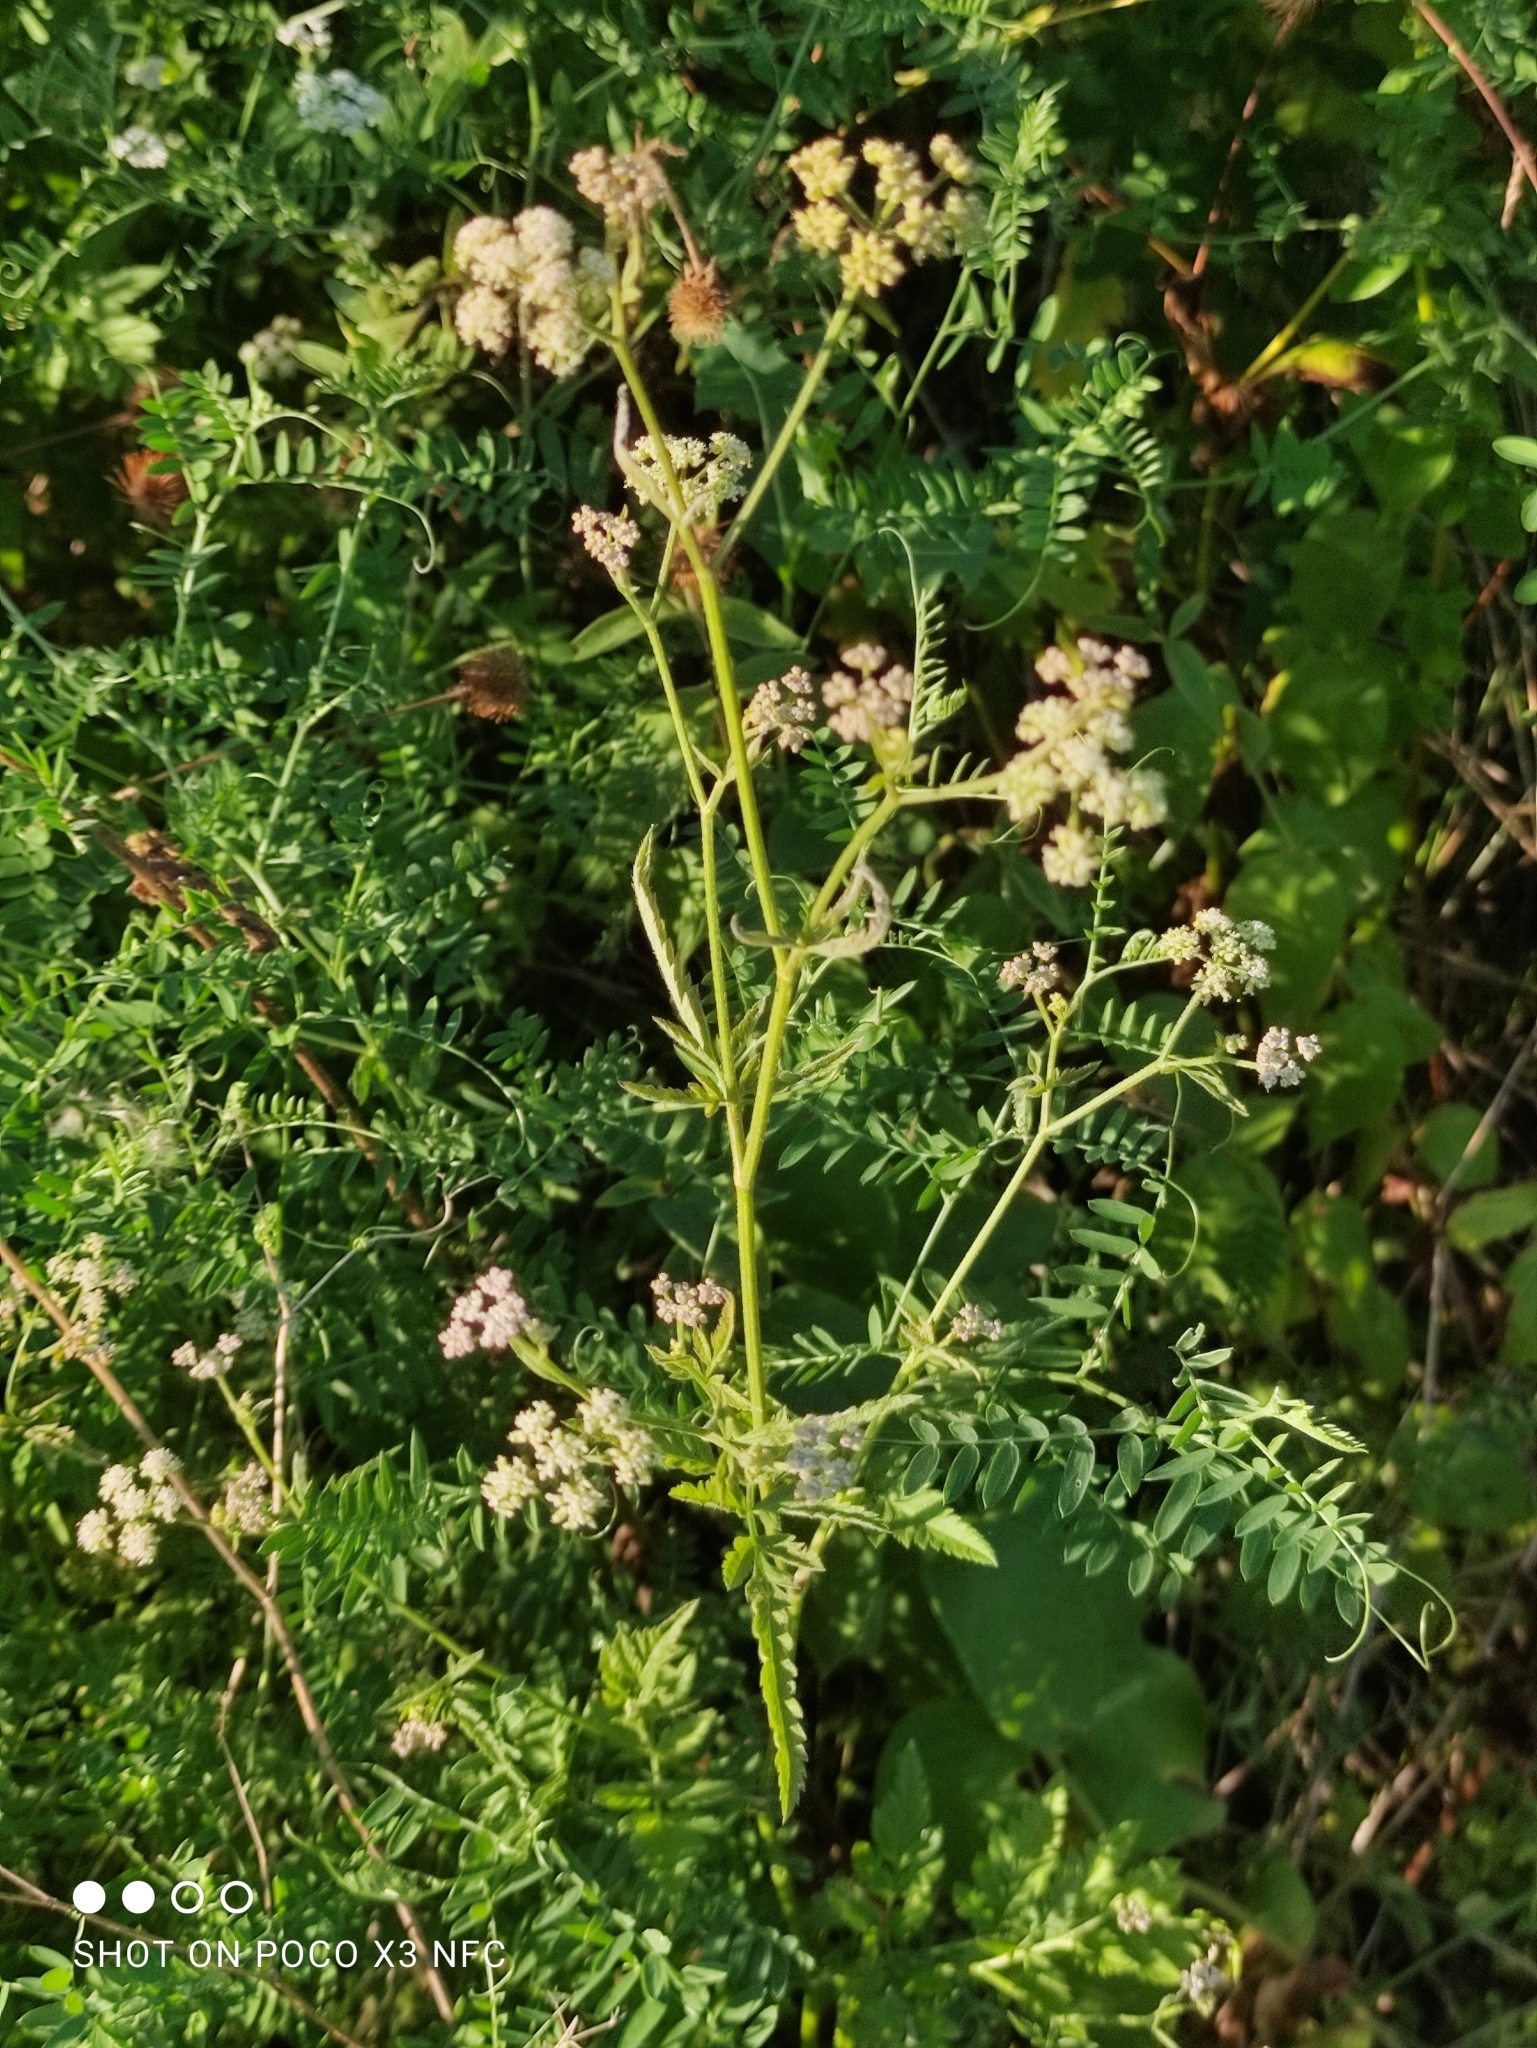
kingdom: Plantae
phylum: Tracheophyta
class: Magnoliopsida
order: Apiales
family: Apiaceae
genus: Torilis
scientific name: Torilis japonica
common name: Upright hedge-parsley
